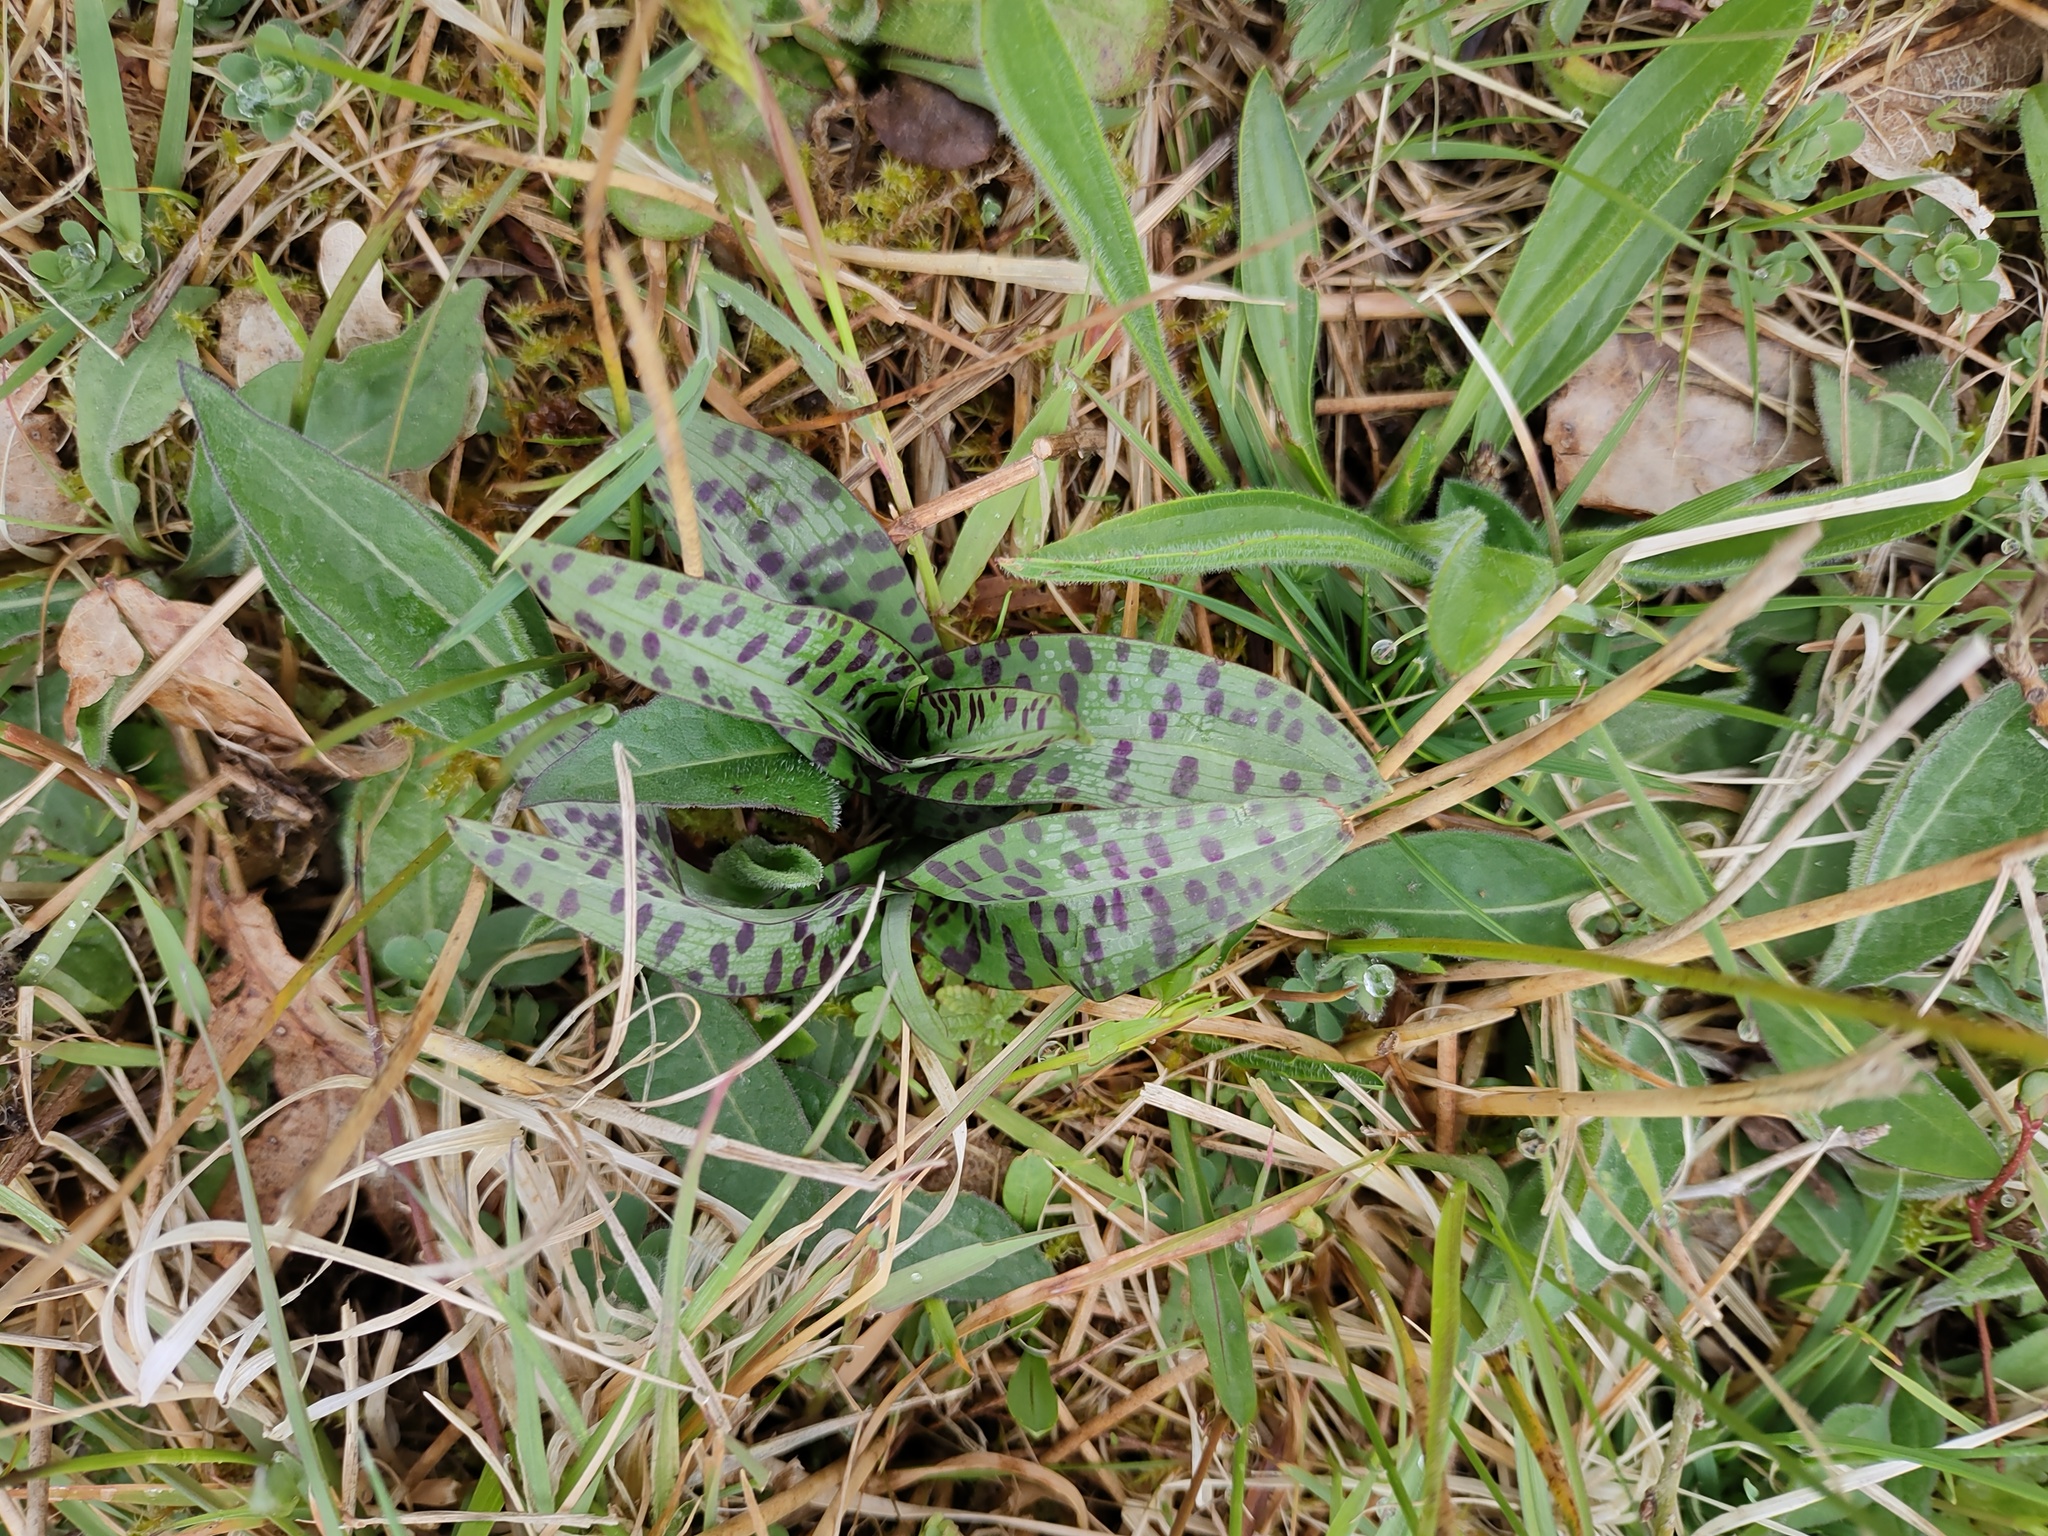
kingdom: Plantae
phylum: Tracheophyta
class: Liliopsida
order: Asparagales
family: Orchidaceae
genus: Dactylorhiza
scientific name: Dactylorhiza maculata
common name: Heath spotted-orchid
